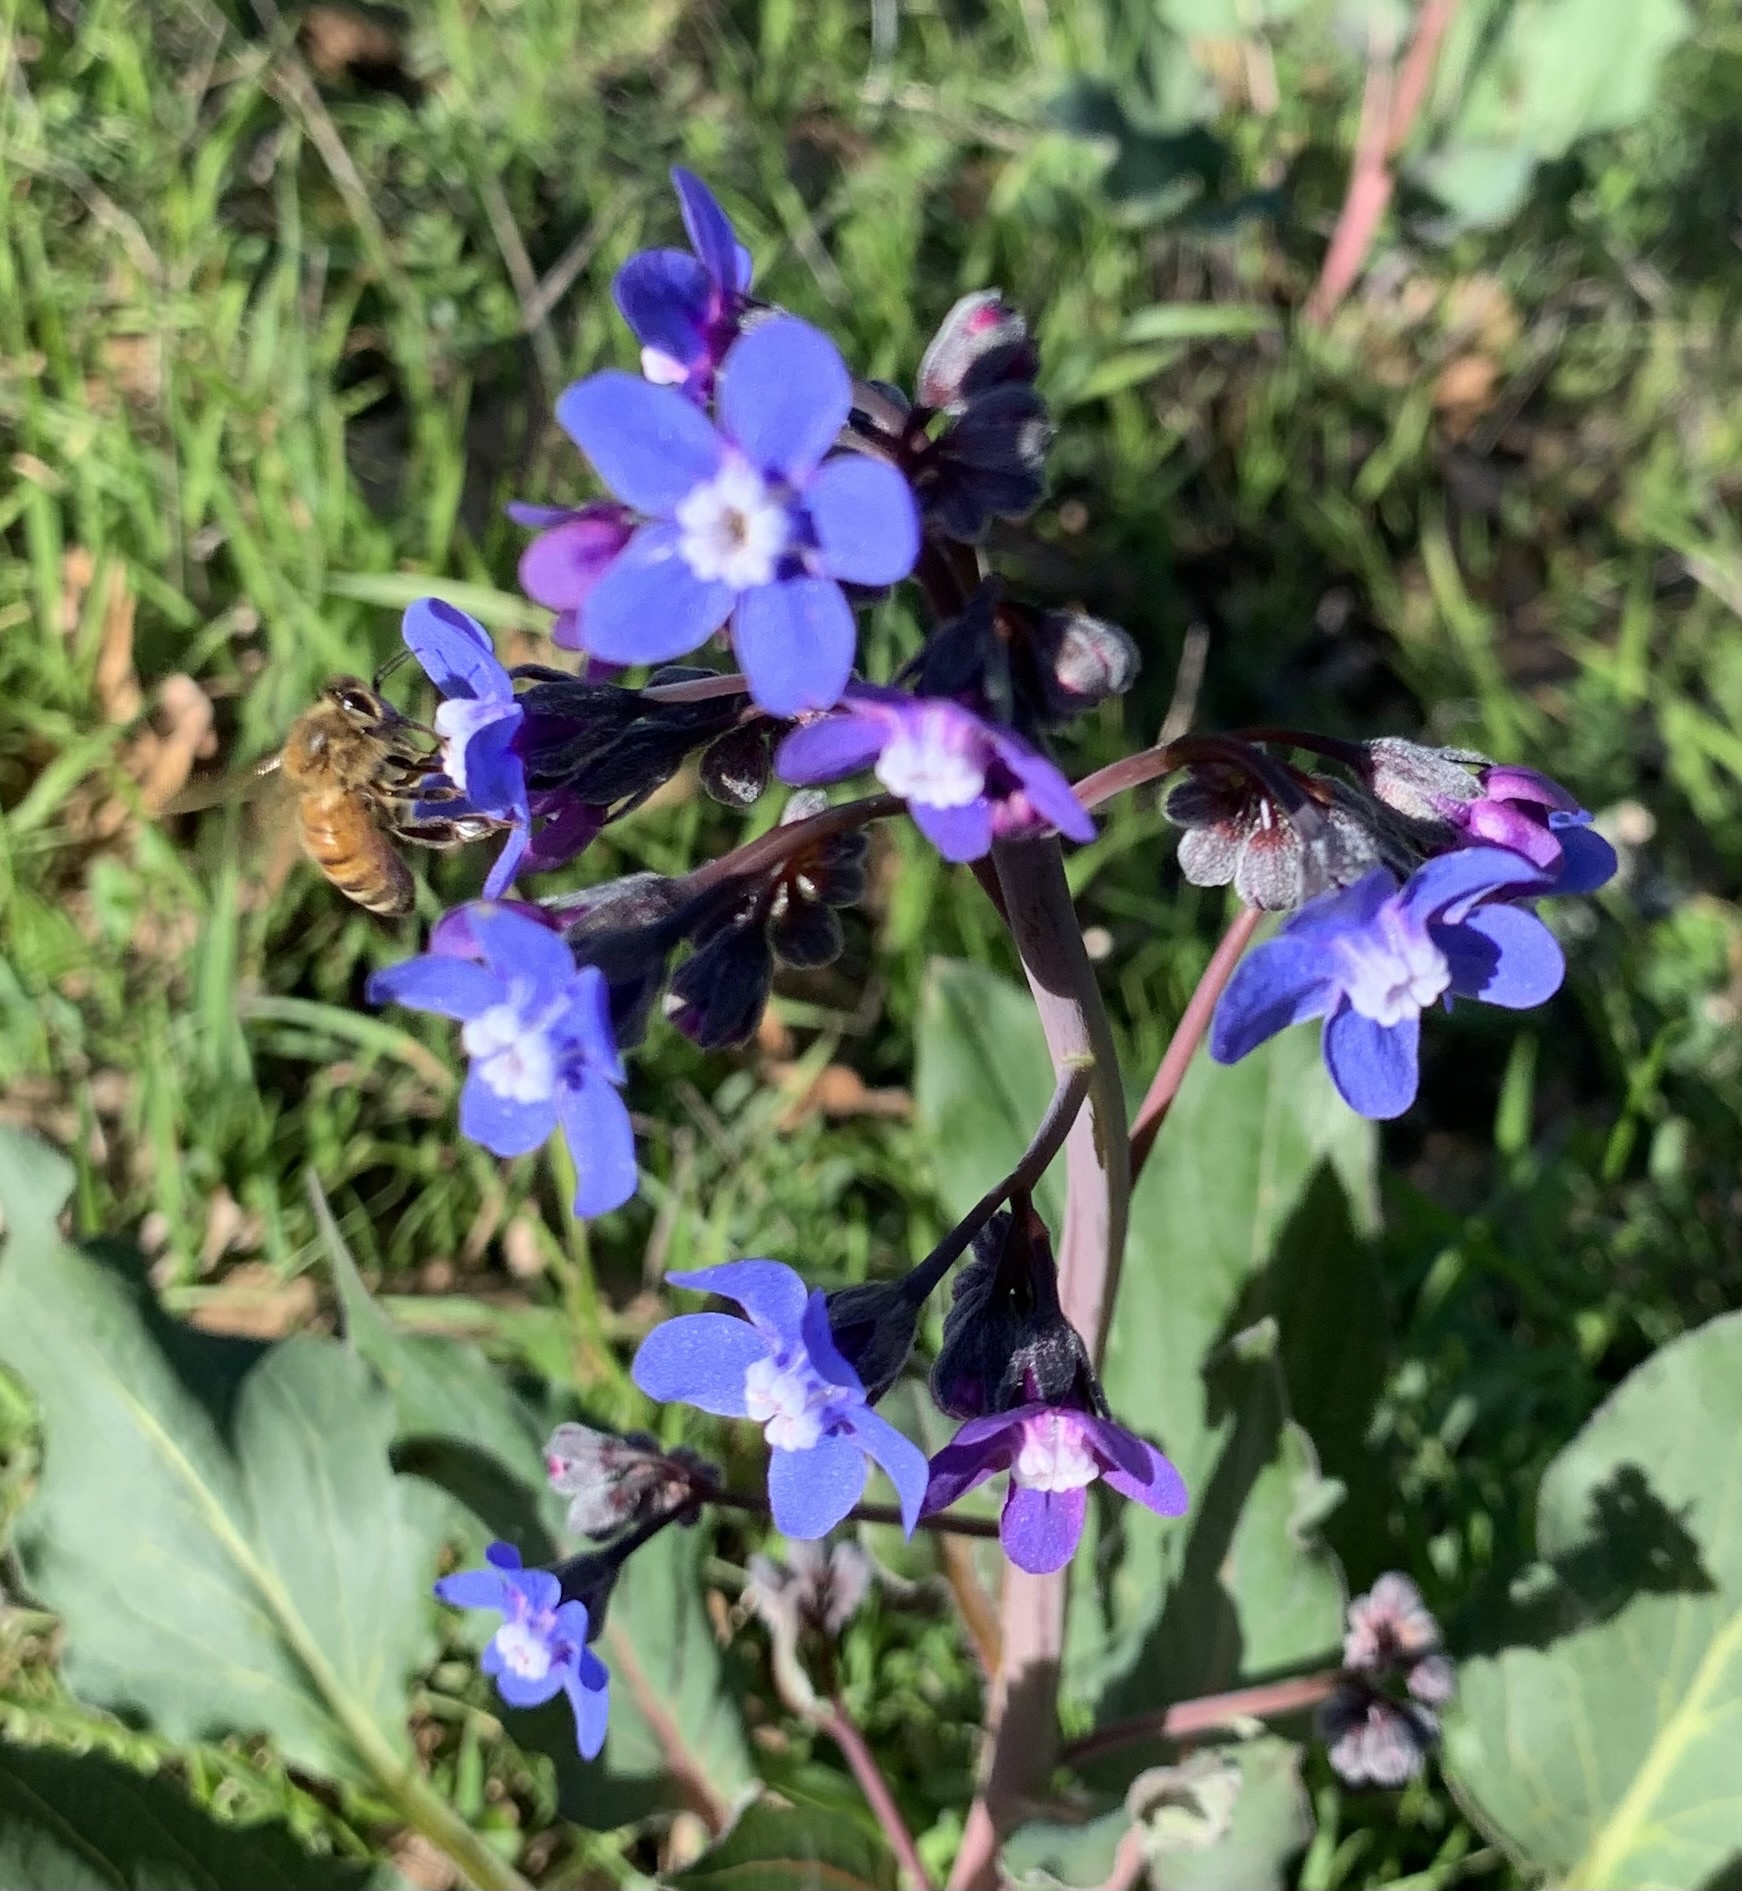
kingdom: Plantae
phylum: Tracheophyta
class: Magnoliopsida
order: Boraginales
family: Boraginaceae
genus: Adelinia
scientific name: Adelinia grande
